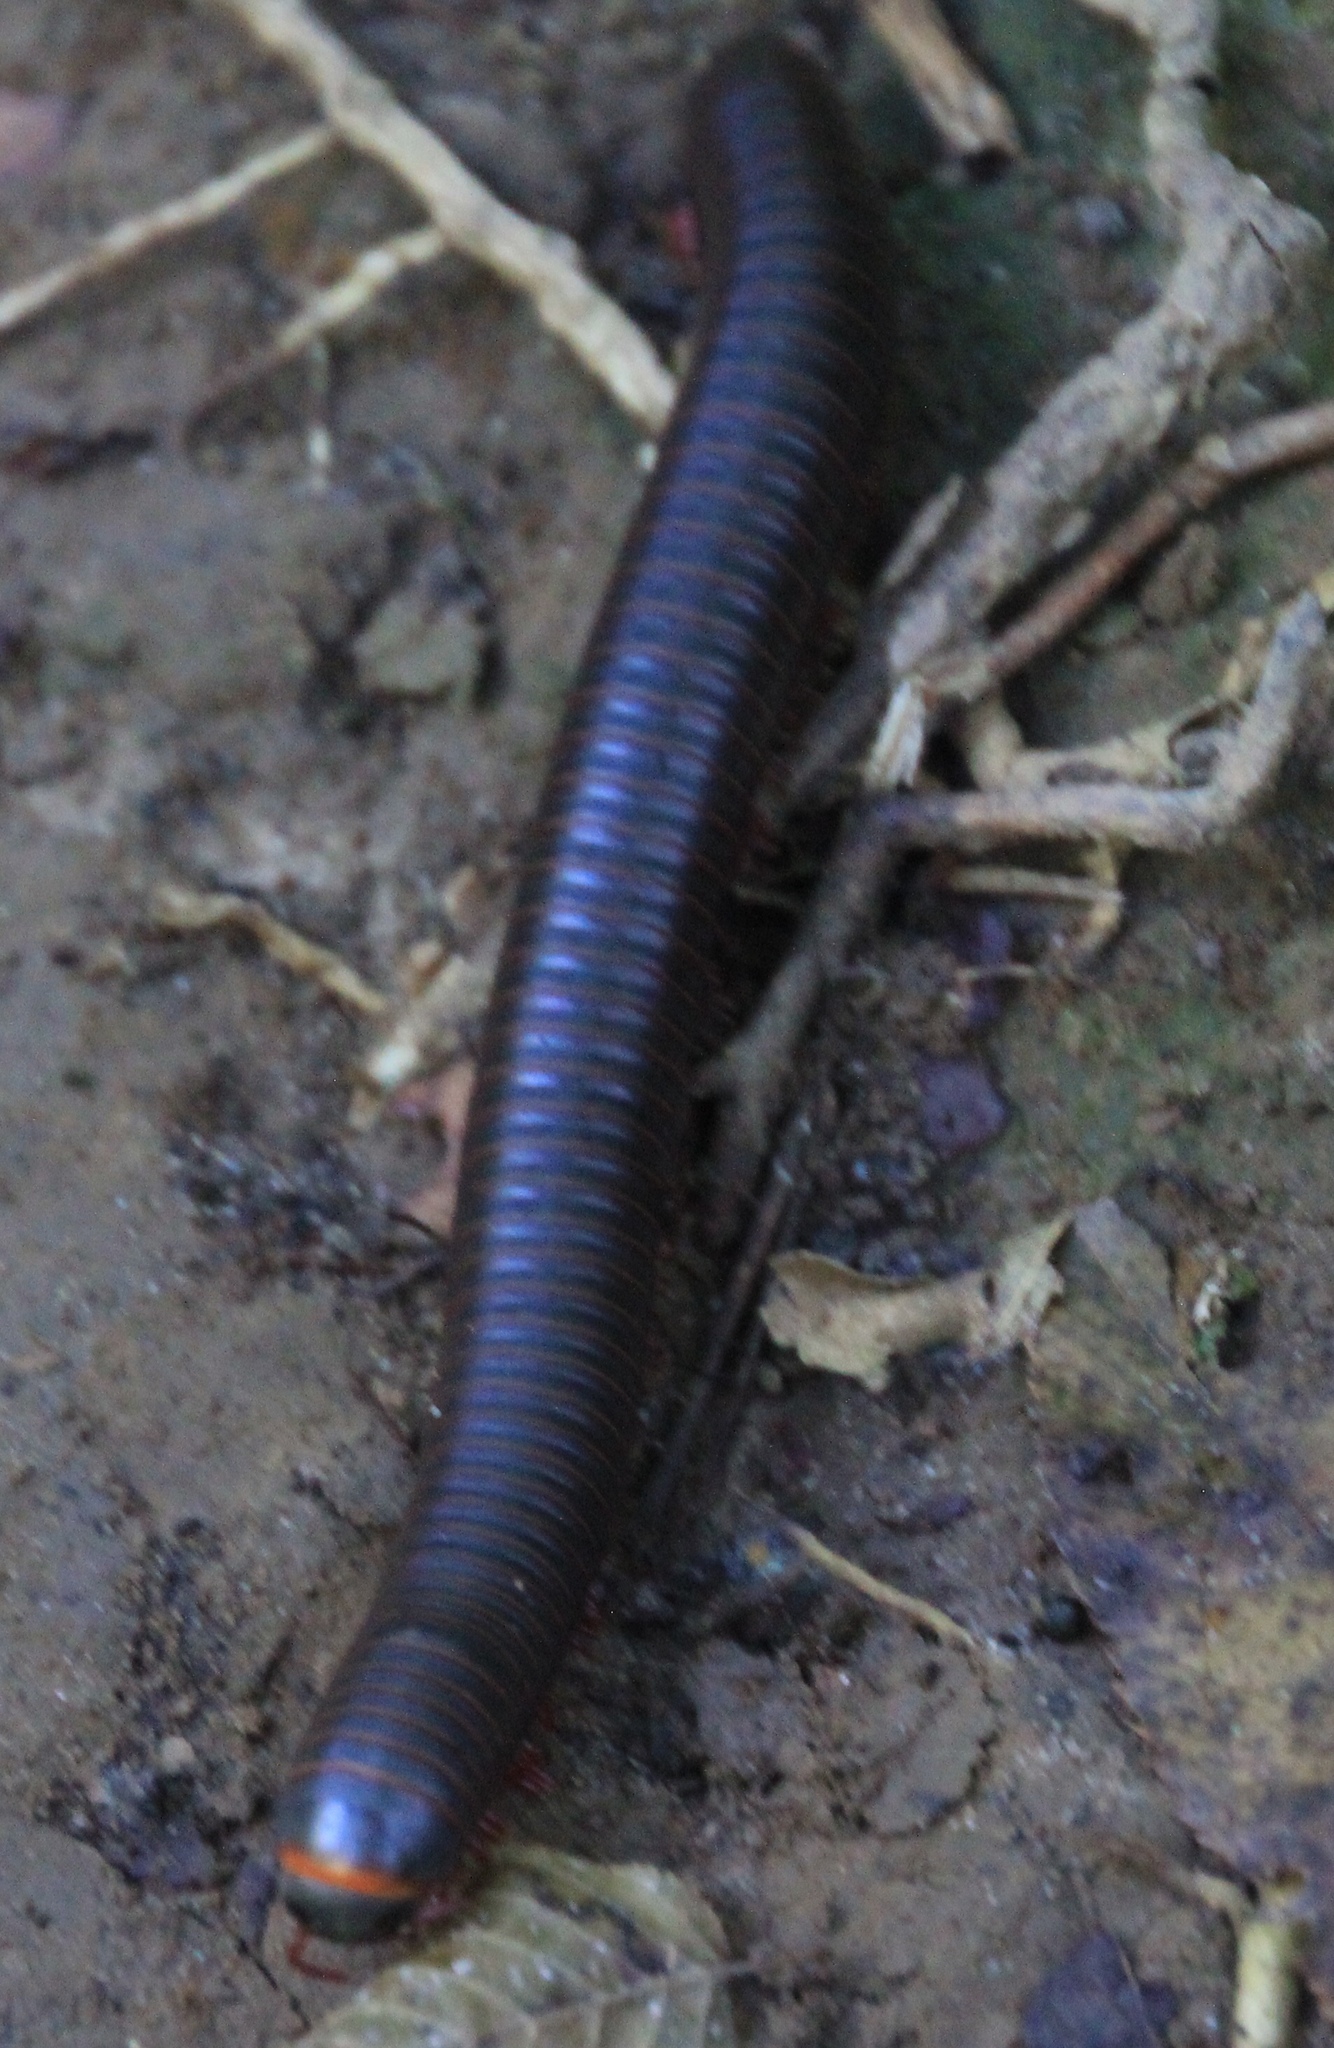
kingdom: Animalia
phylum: Arthropoda
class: Diplopoda
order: Spirobolida
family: Spirobolidae
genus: Narceus
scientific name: Narceus
